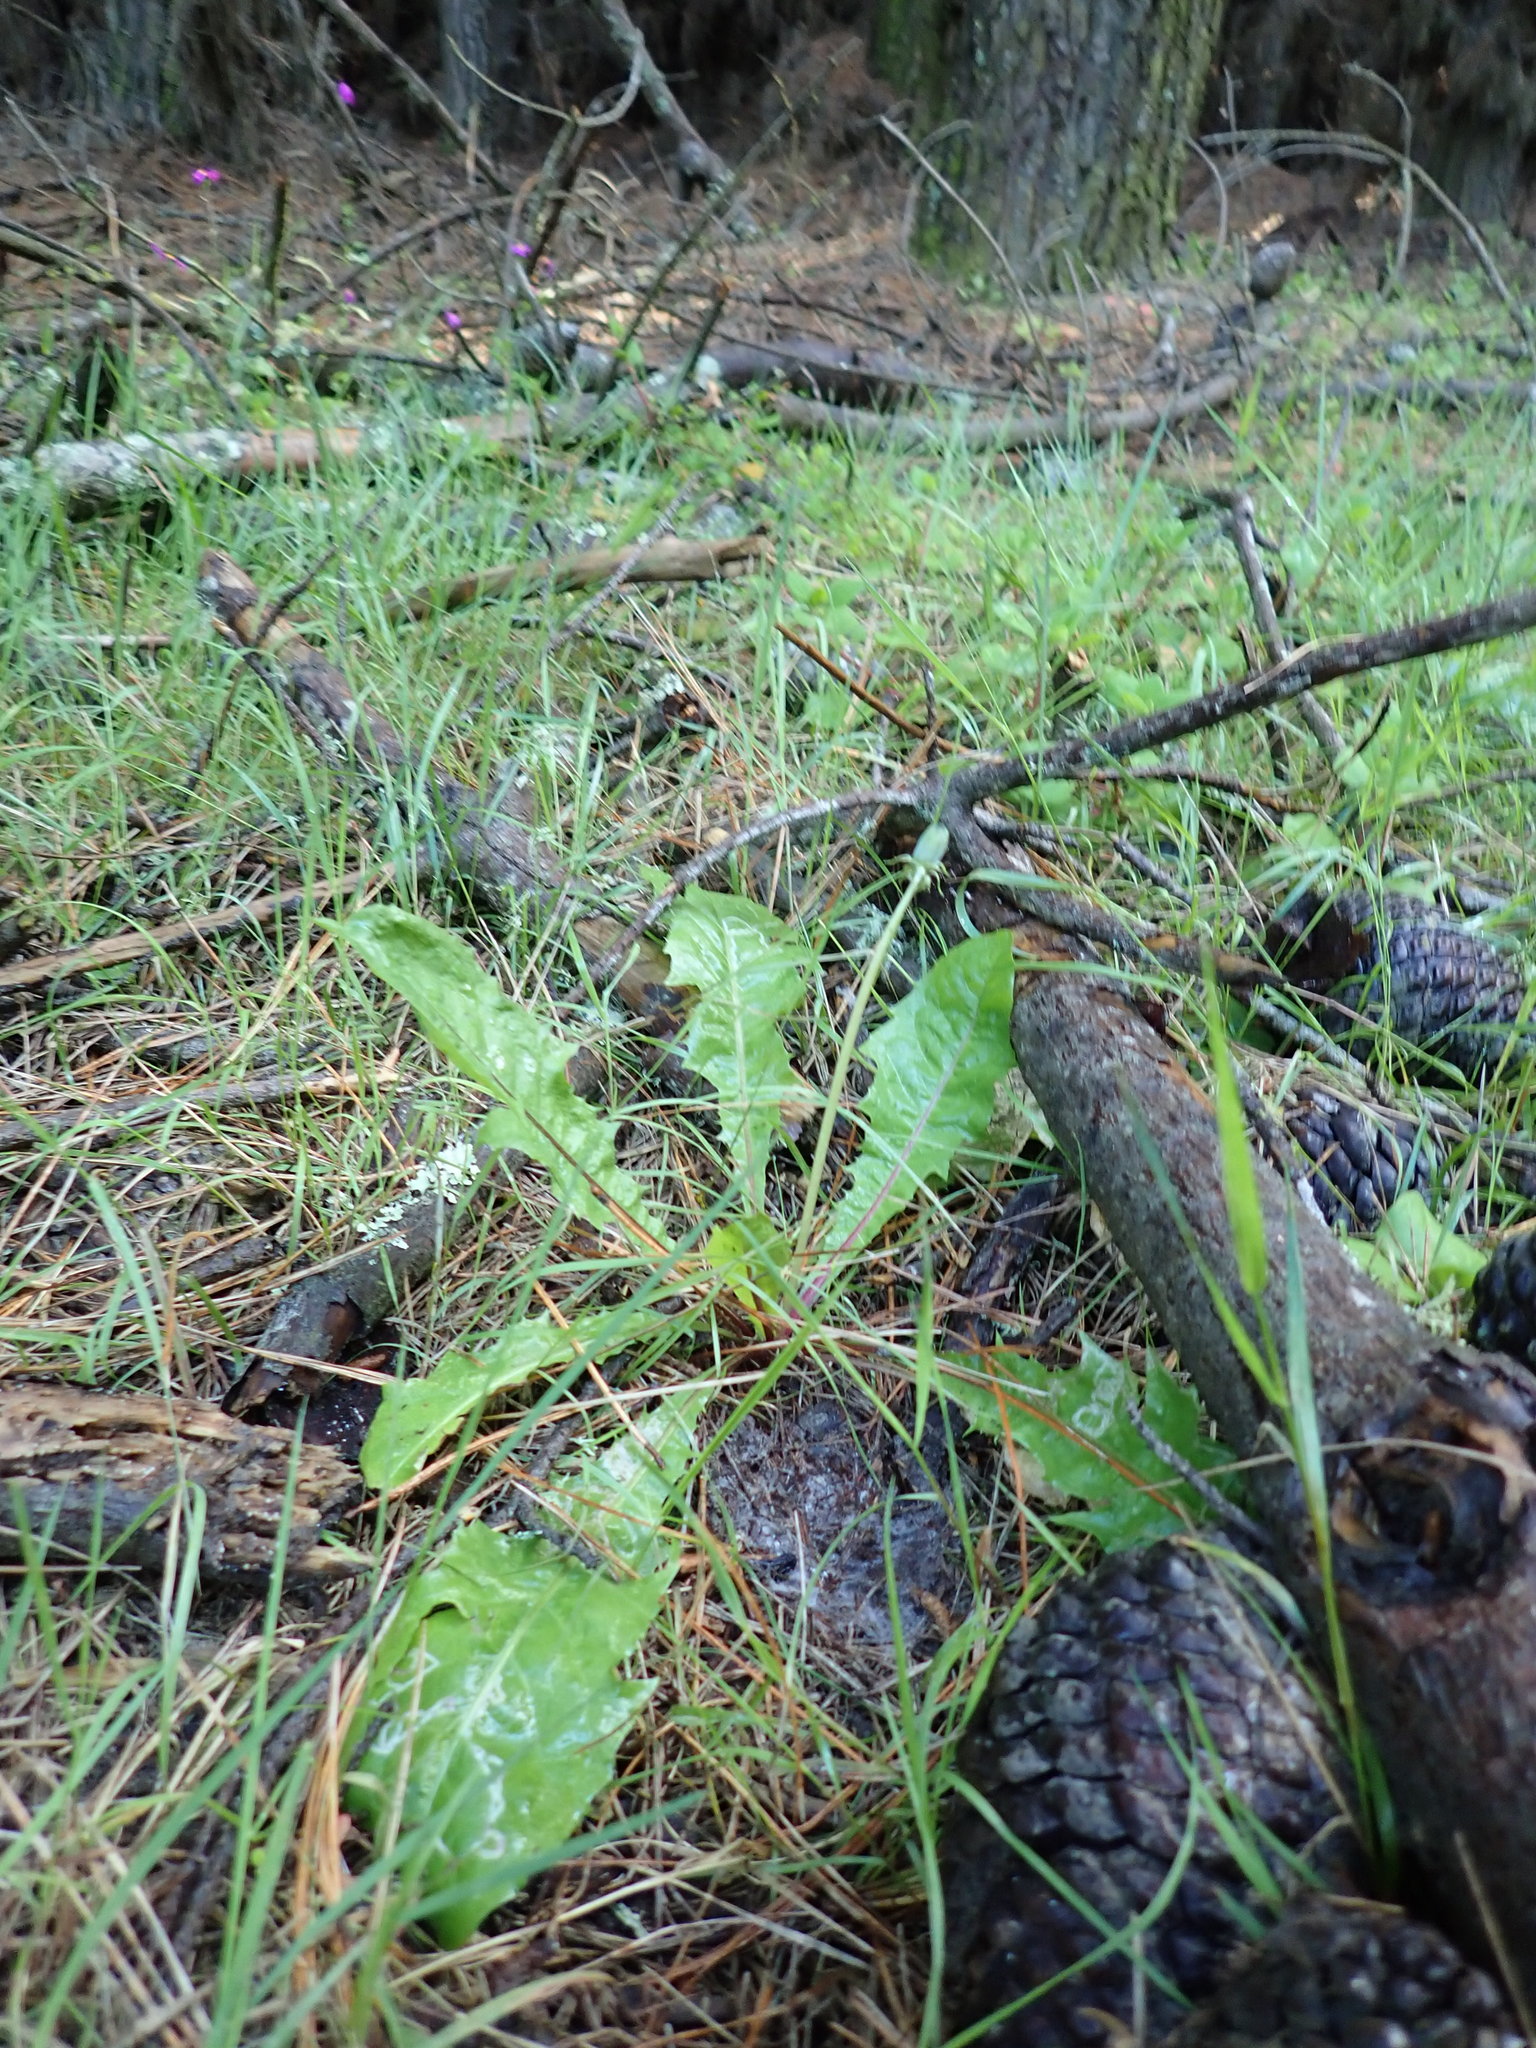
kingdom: Plantae
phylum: Tracheophyta
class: Magnoliopsida
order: Asterales
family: Asteraceae
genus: Taraxacum
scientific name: Taraxacum officinale
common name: Common dandelion
